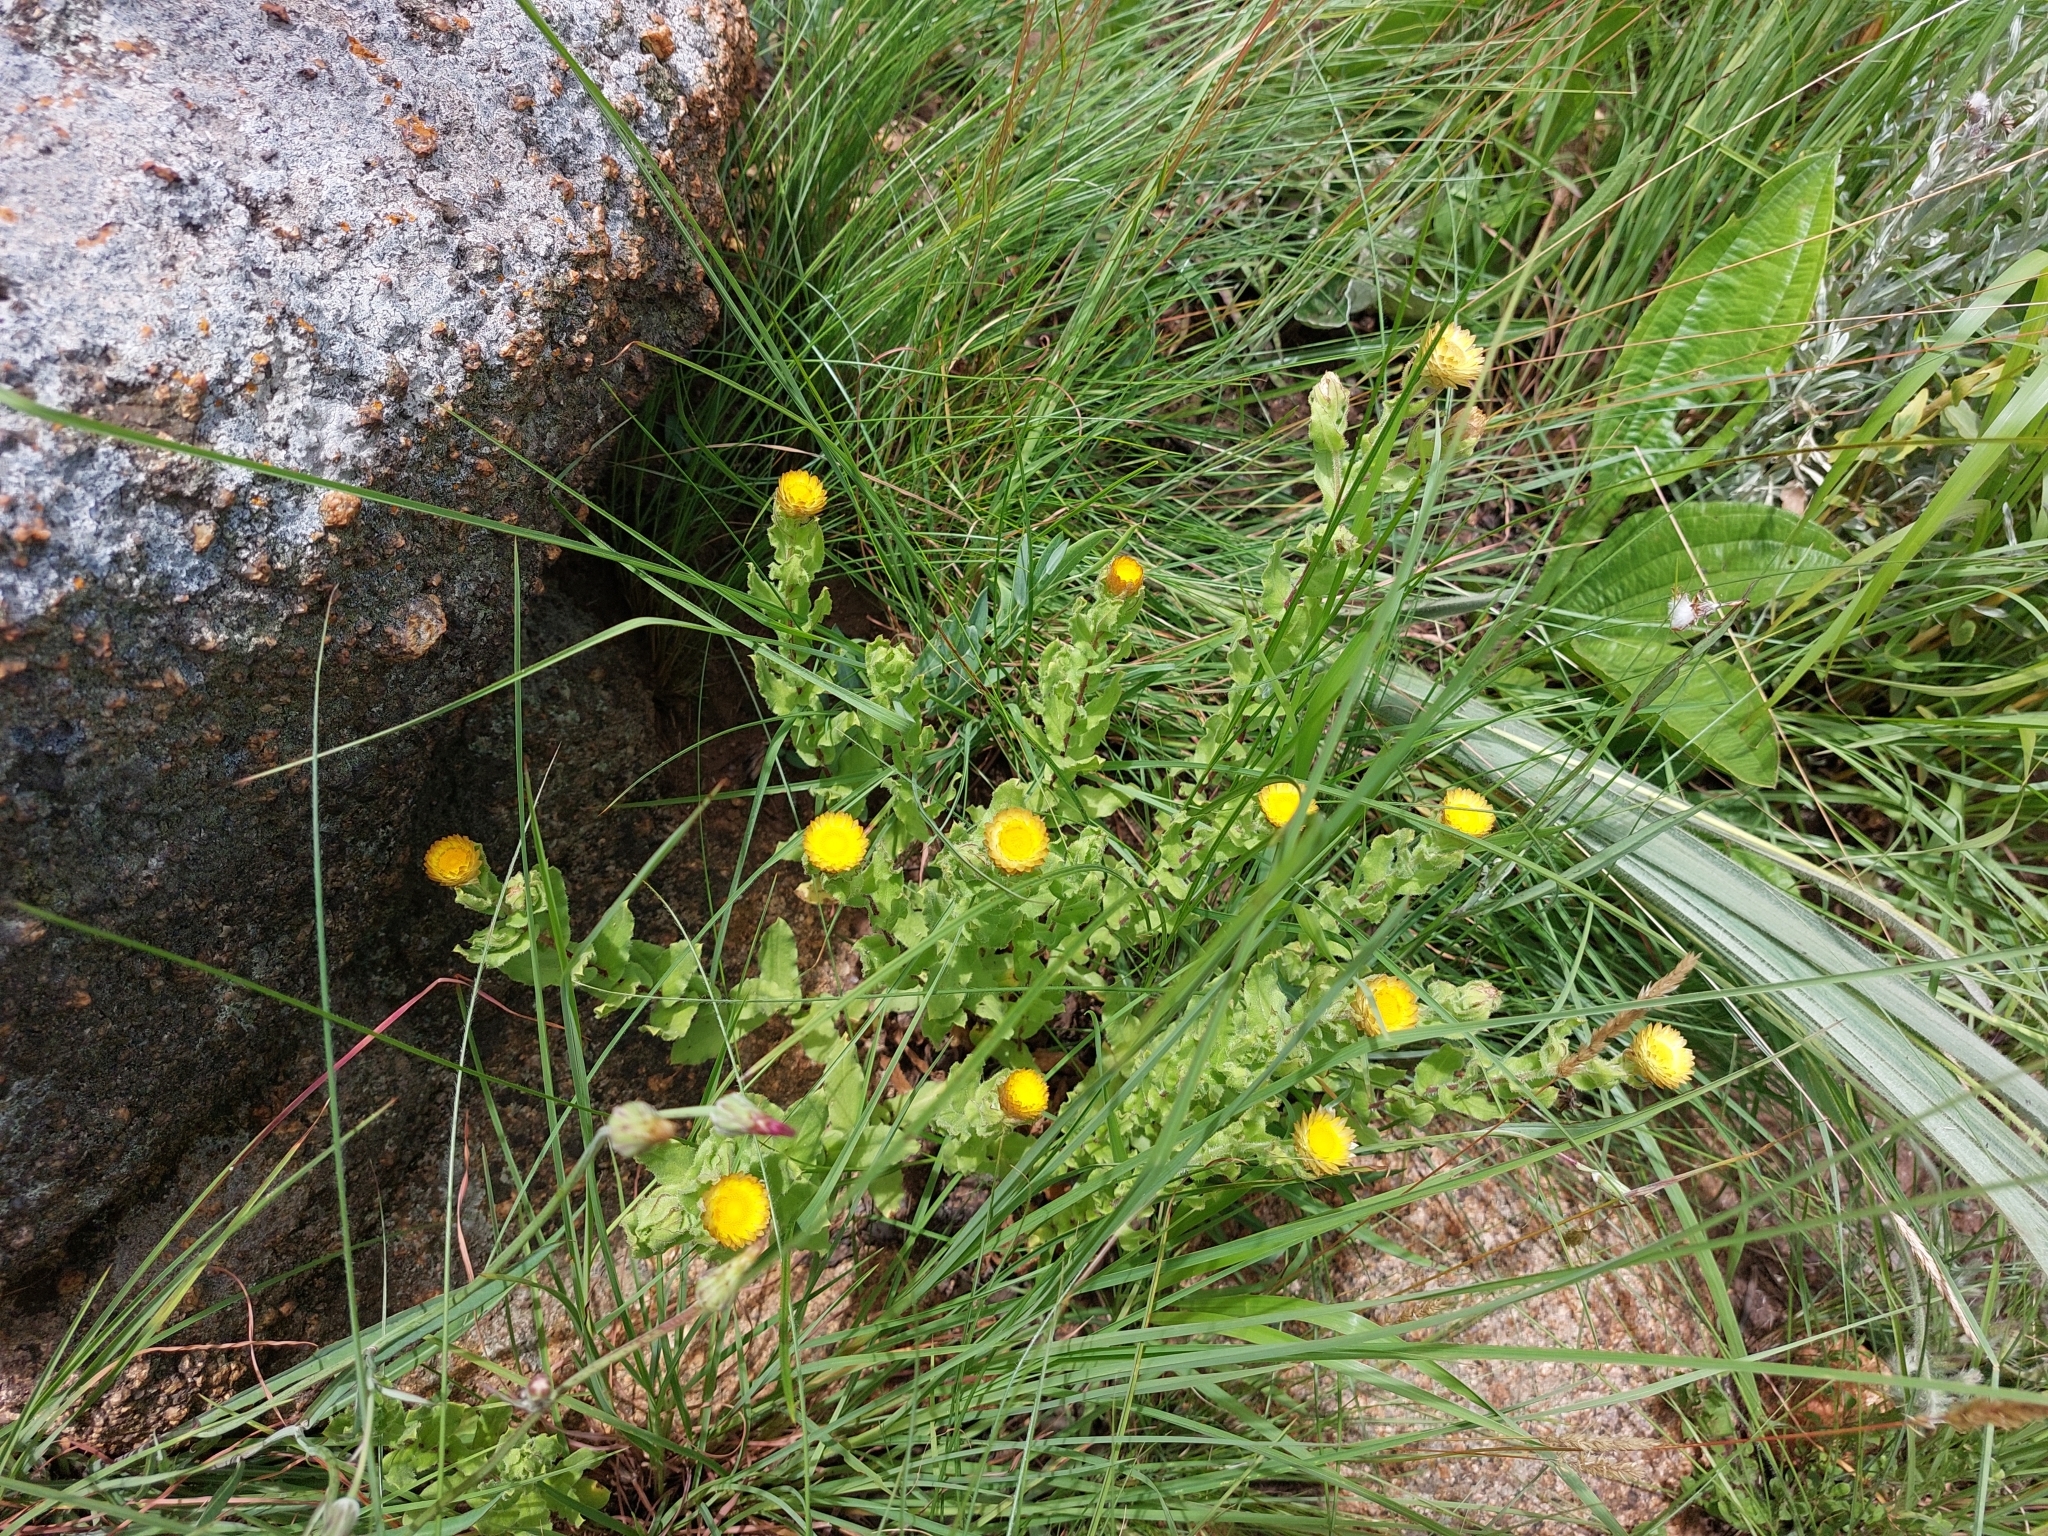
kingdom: Plantae
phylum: Tracheophyta
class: Magnoliopsida
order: Asterales
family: Asteraceae
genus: Helichrysum
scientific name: Helichrysum setosum
